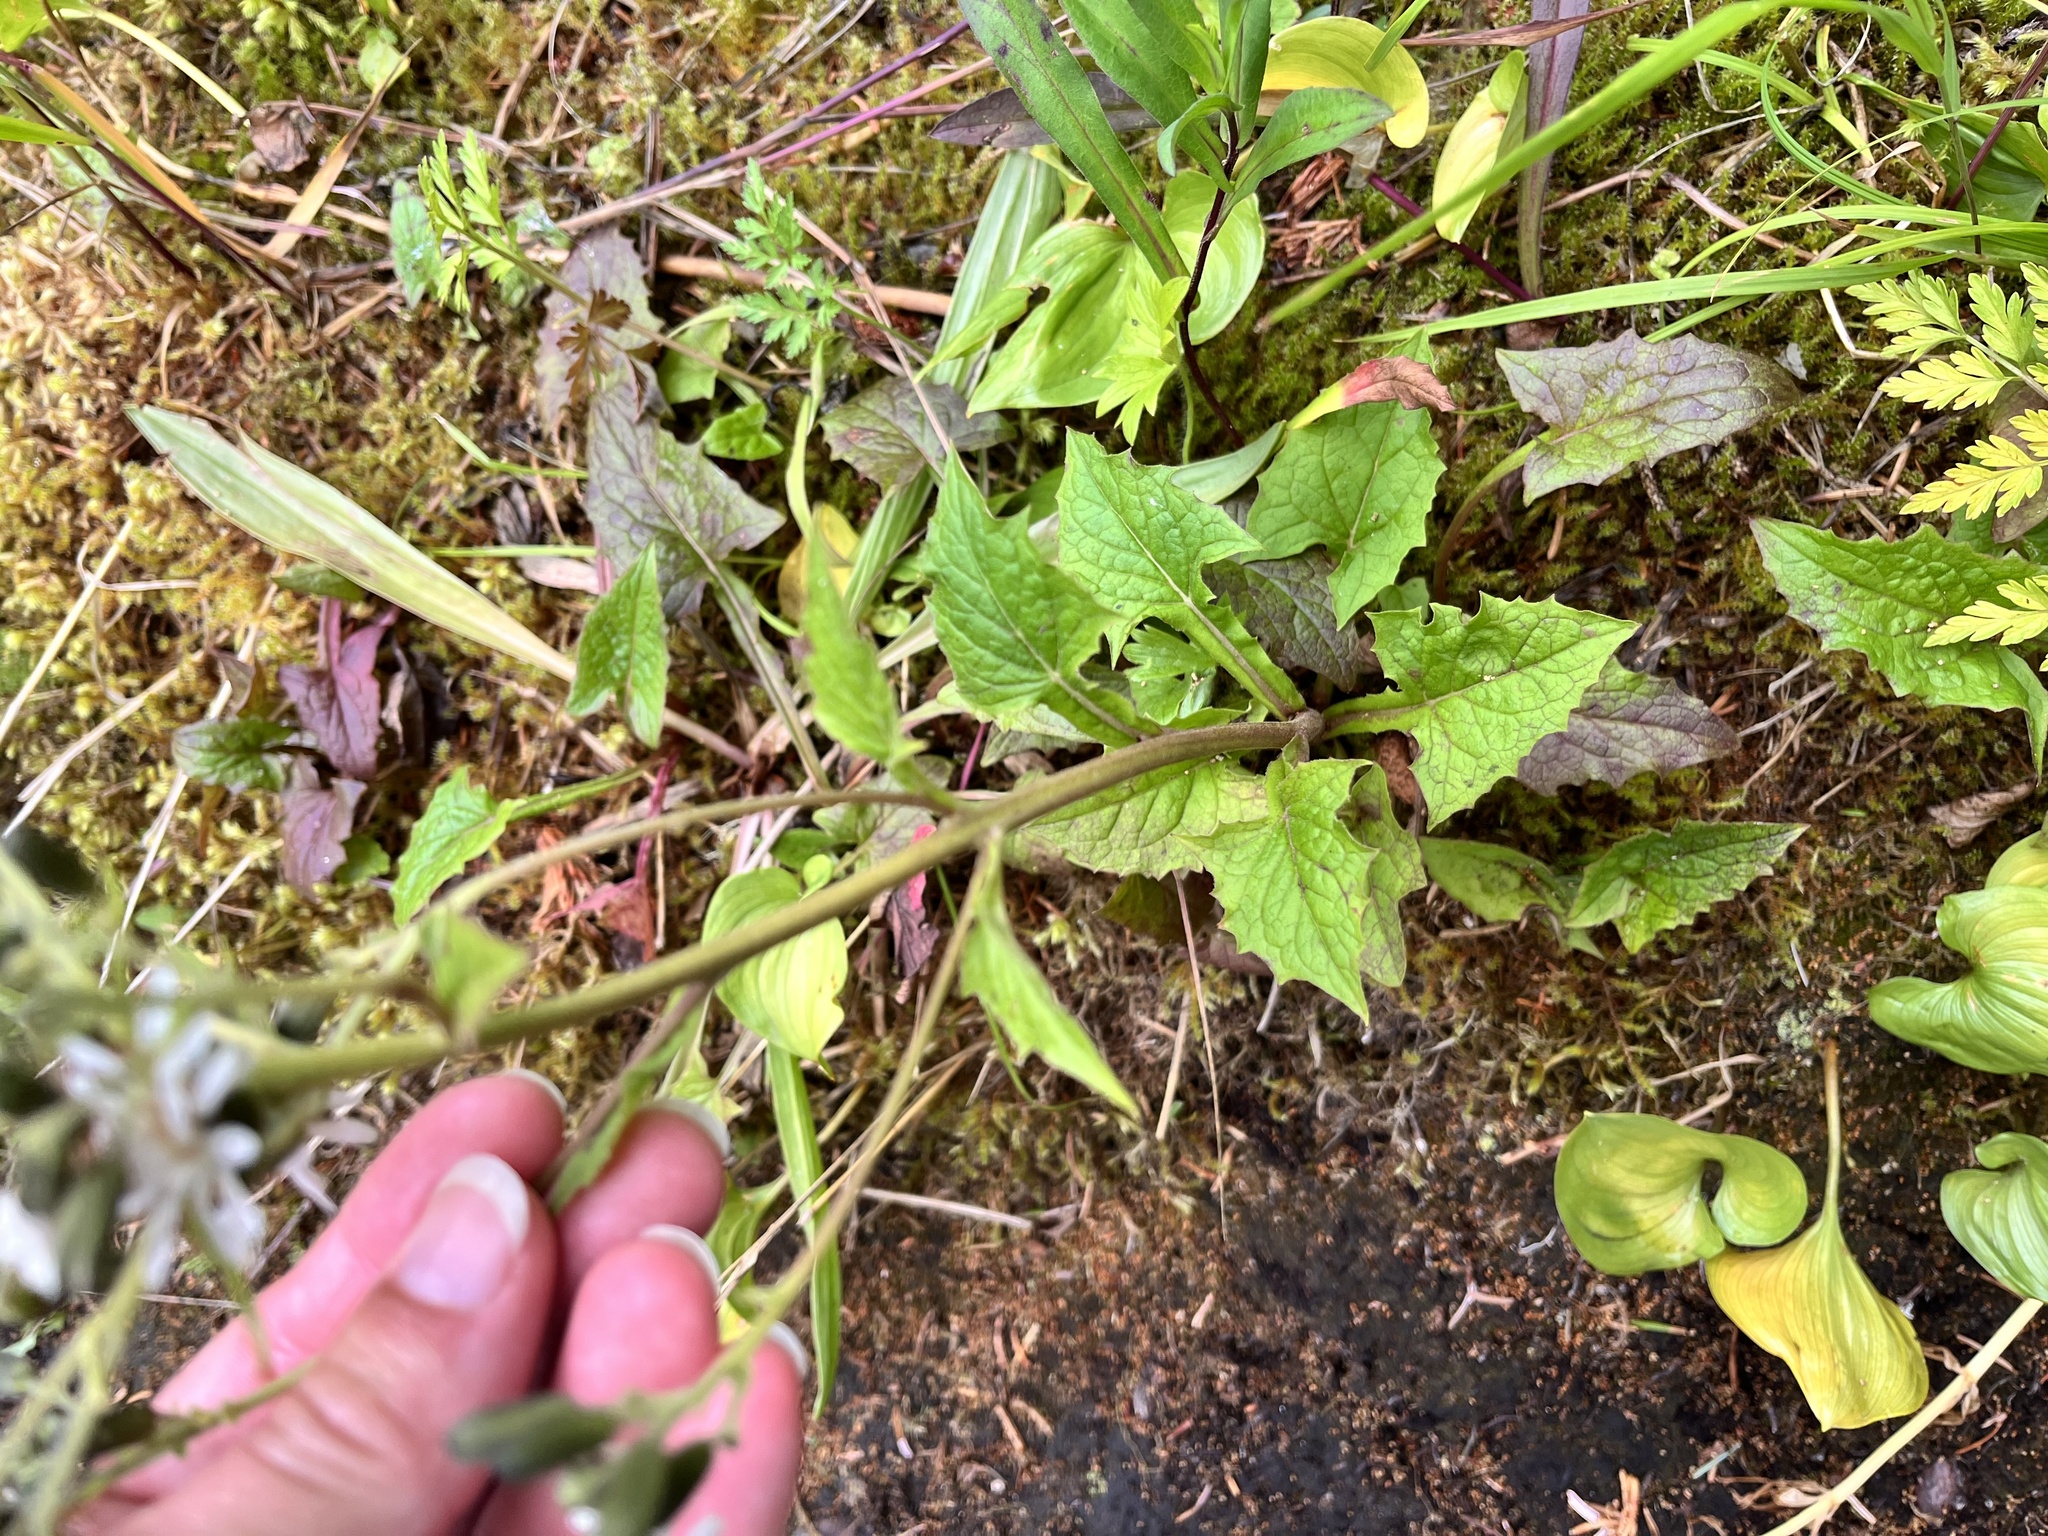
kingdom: Plantae
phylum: Tracheophyta
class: Magnoliopsida
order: Asterales
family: Asteraceae
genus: Nabalus
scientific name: Nabalus hastatus
